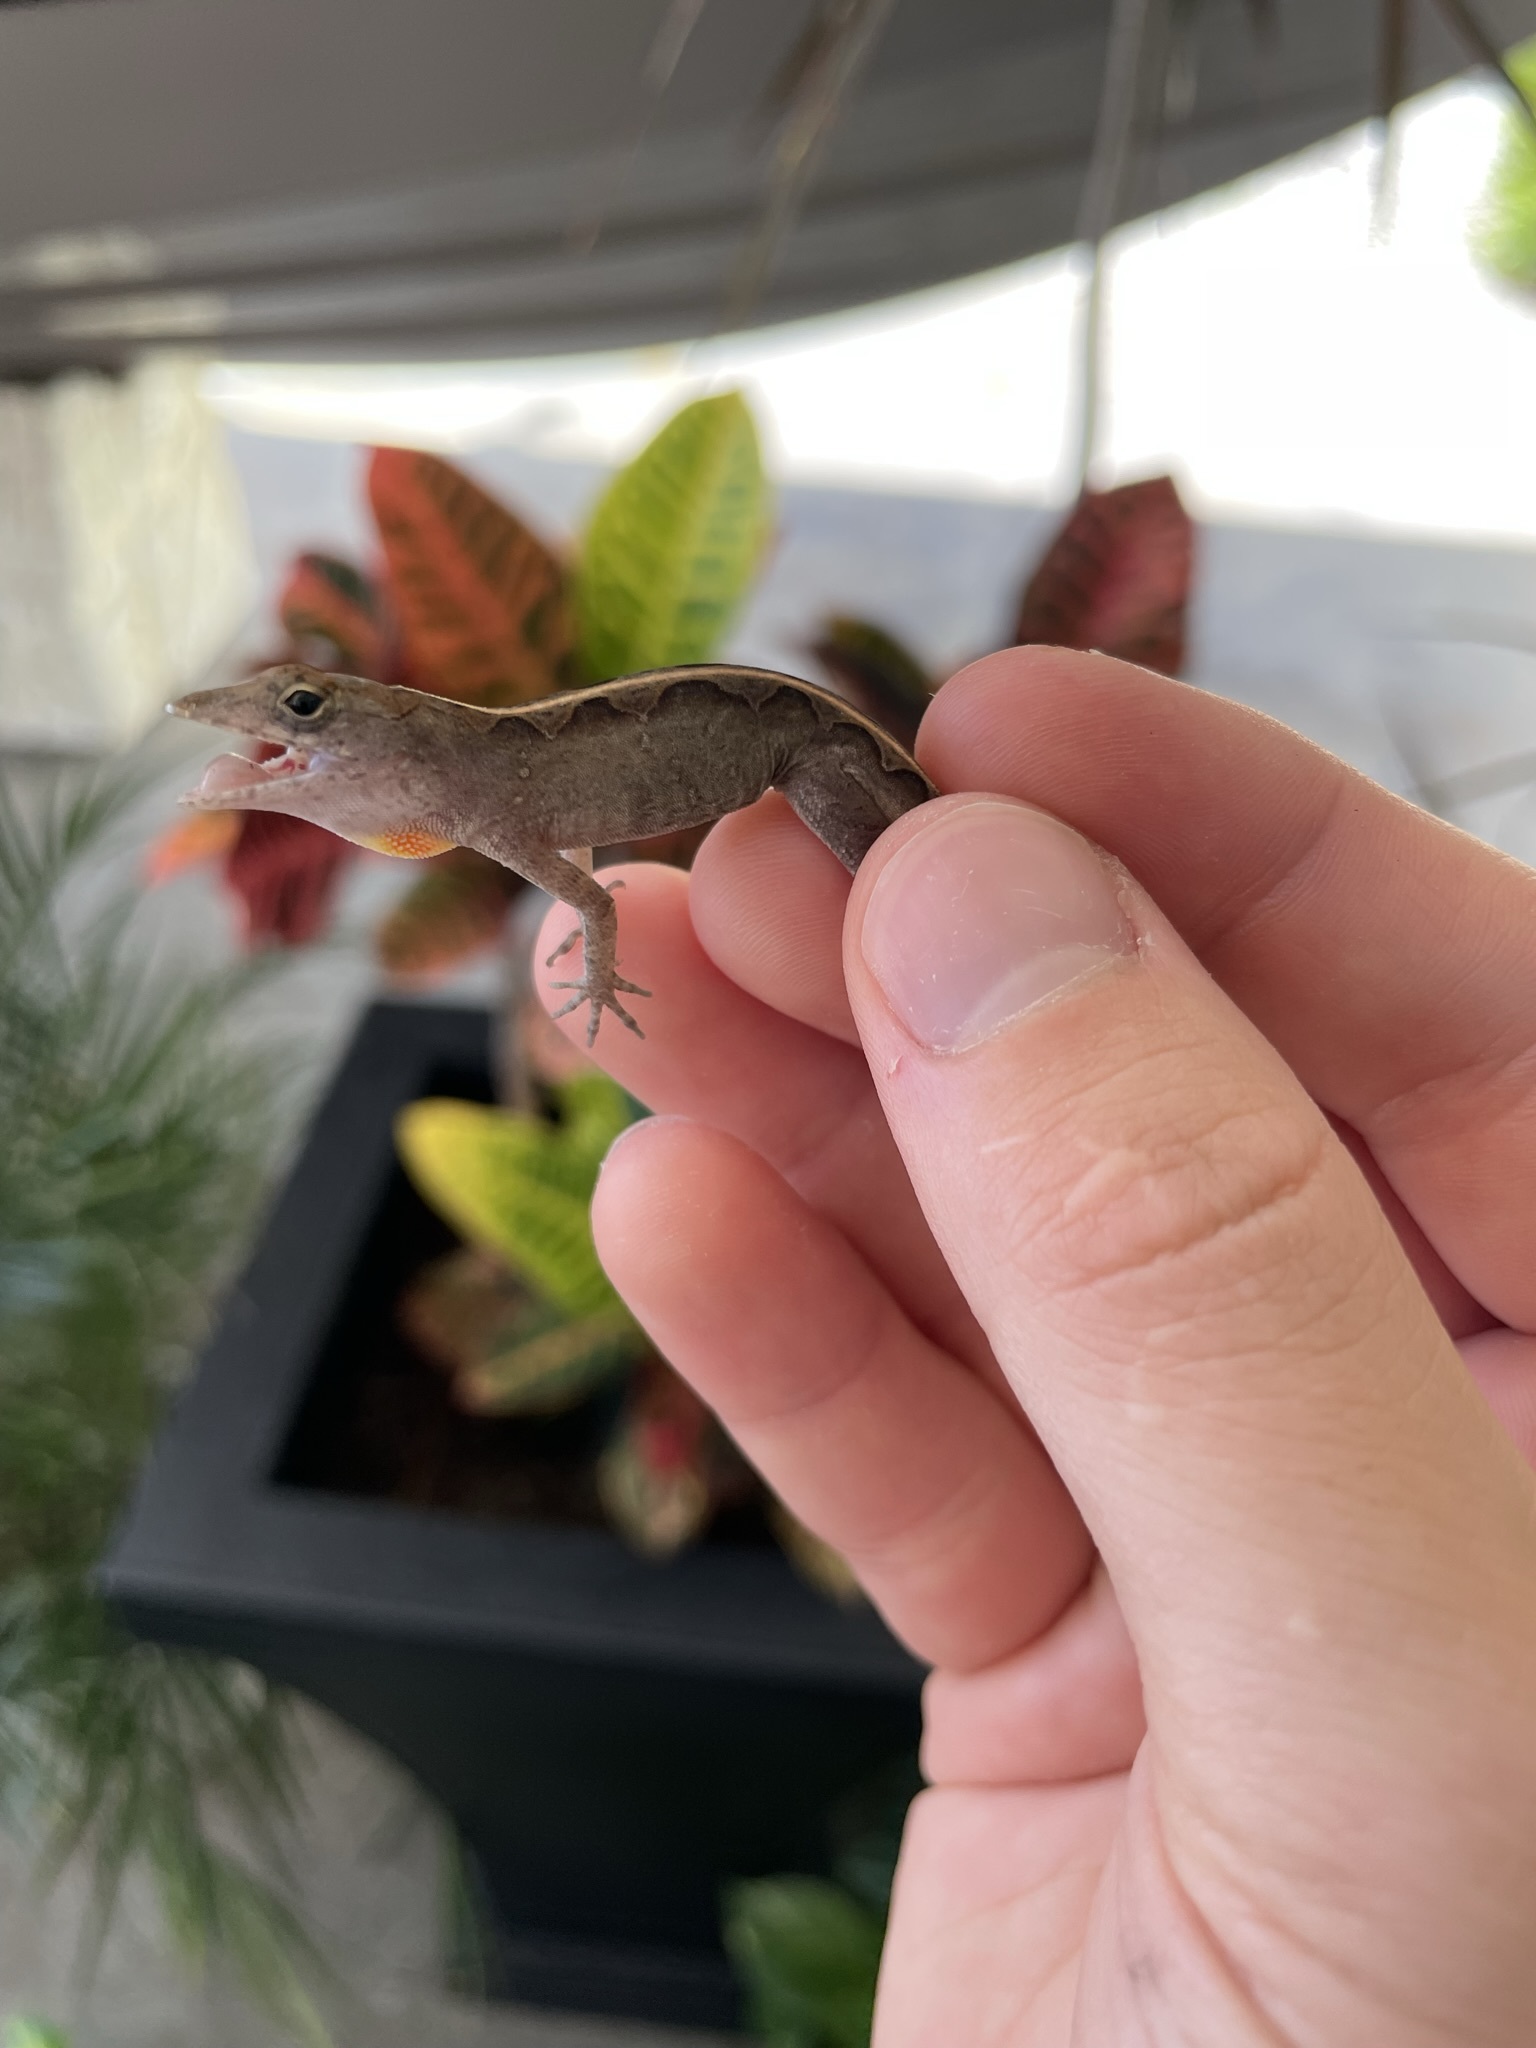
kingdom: Animalia
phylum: Chordata
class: Squamata
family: Dactyloidae
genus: Anolis
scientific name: Anolis sagrei
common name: Brown anole
